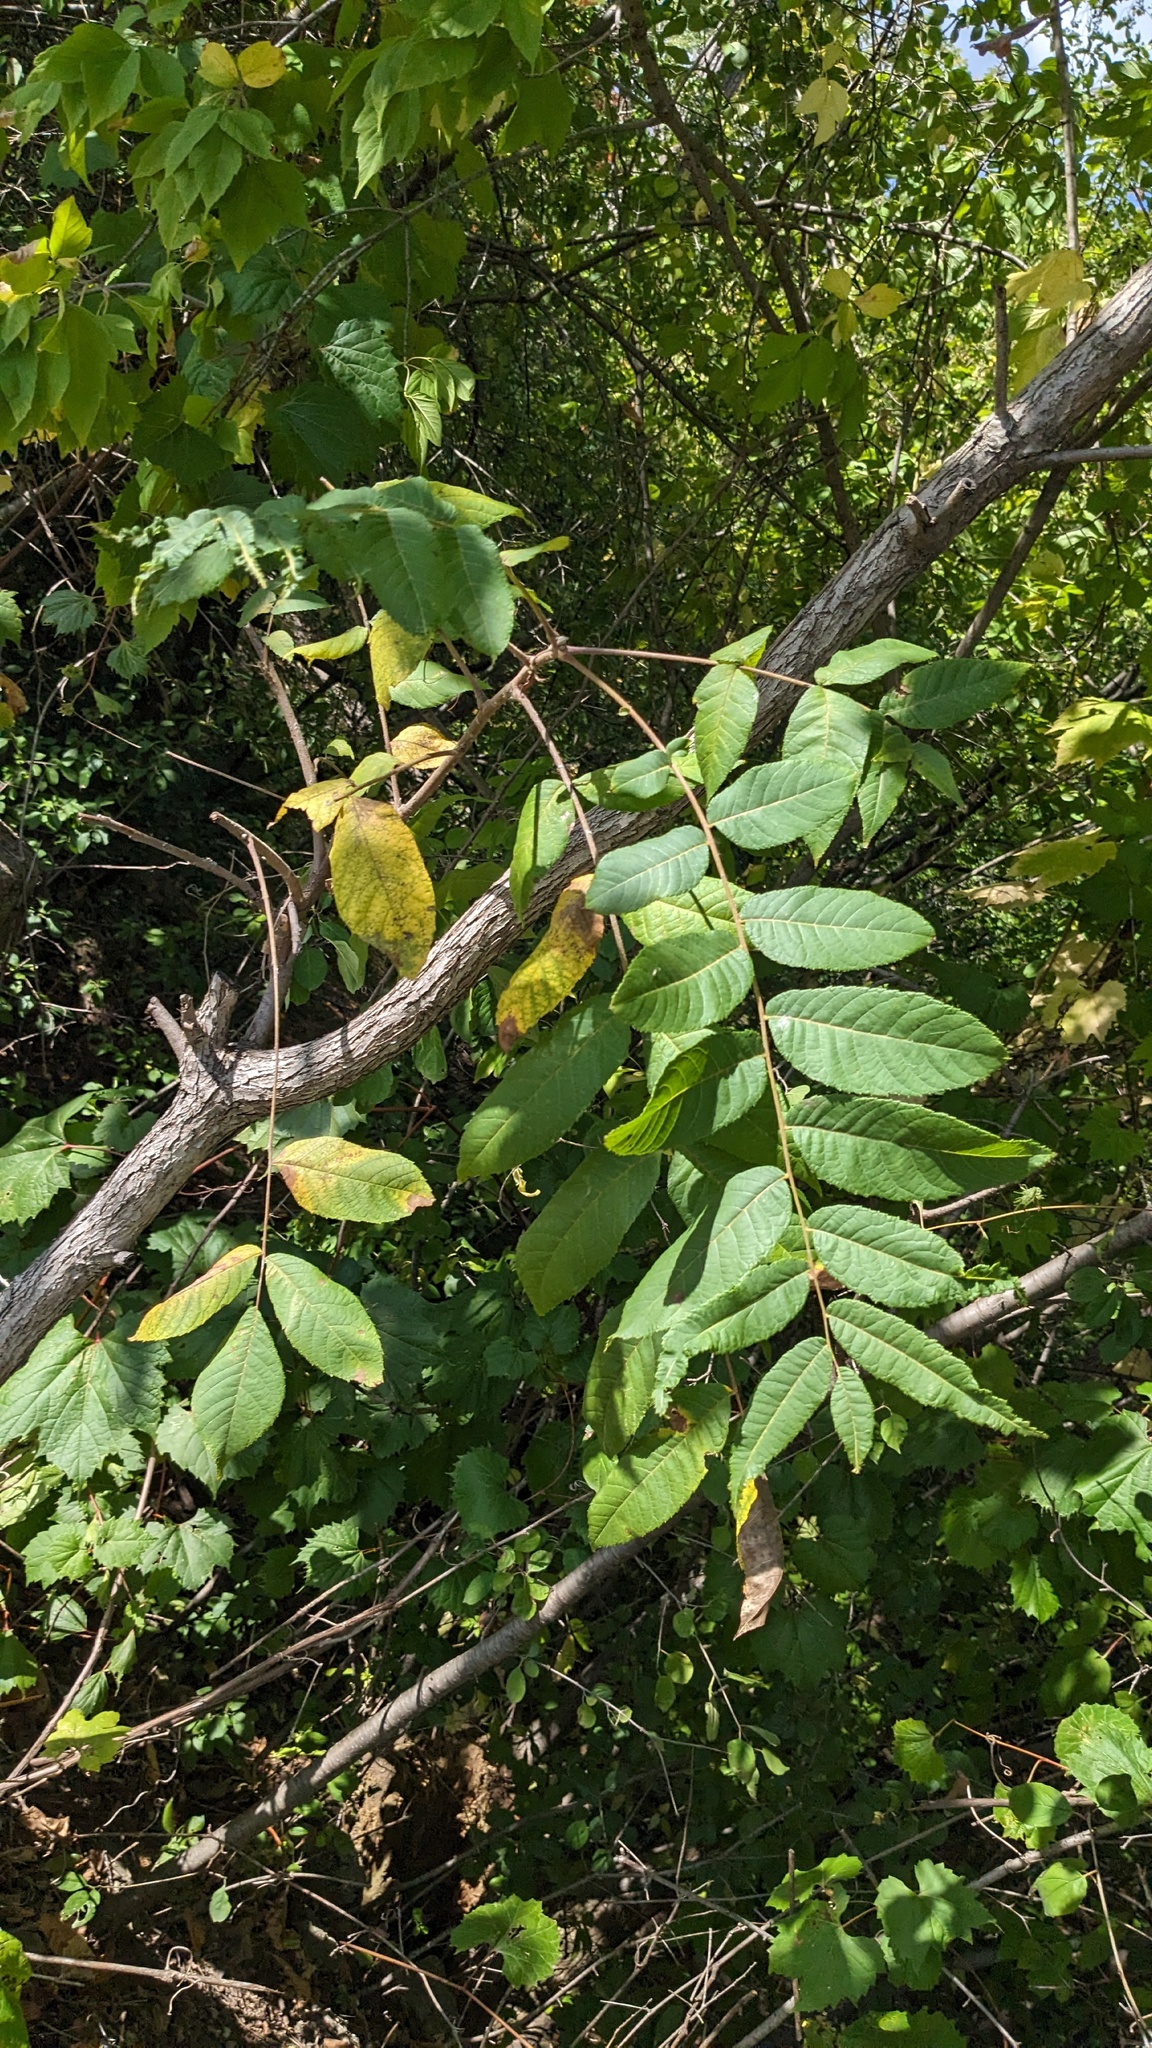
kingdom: Plantae
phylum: Tracheophyta
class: Magnoliopsida
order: Fagales
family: Juglandaceae
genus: Juglans
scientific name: Juglans nigra
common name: Black walnut
